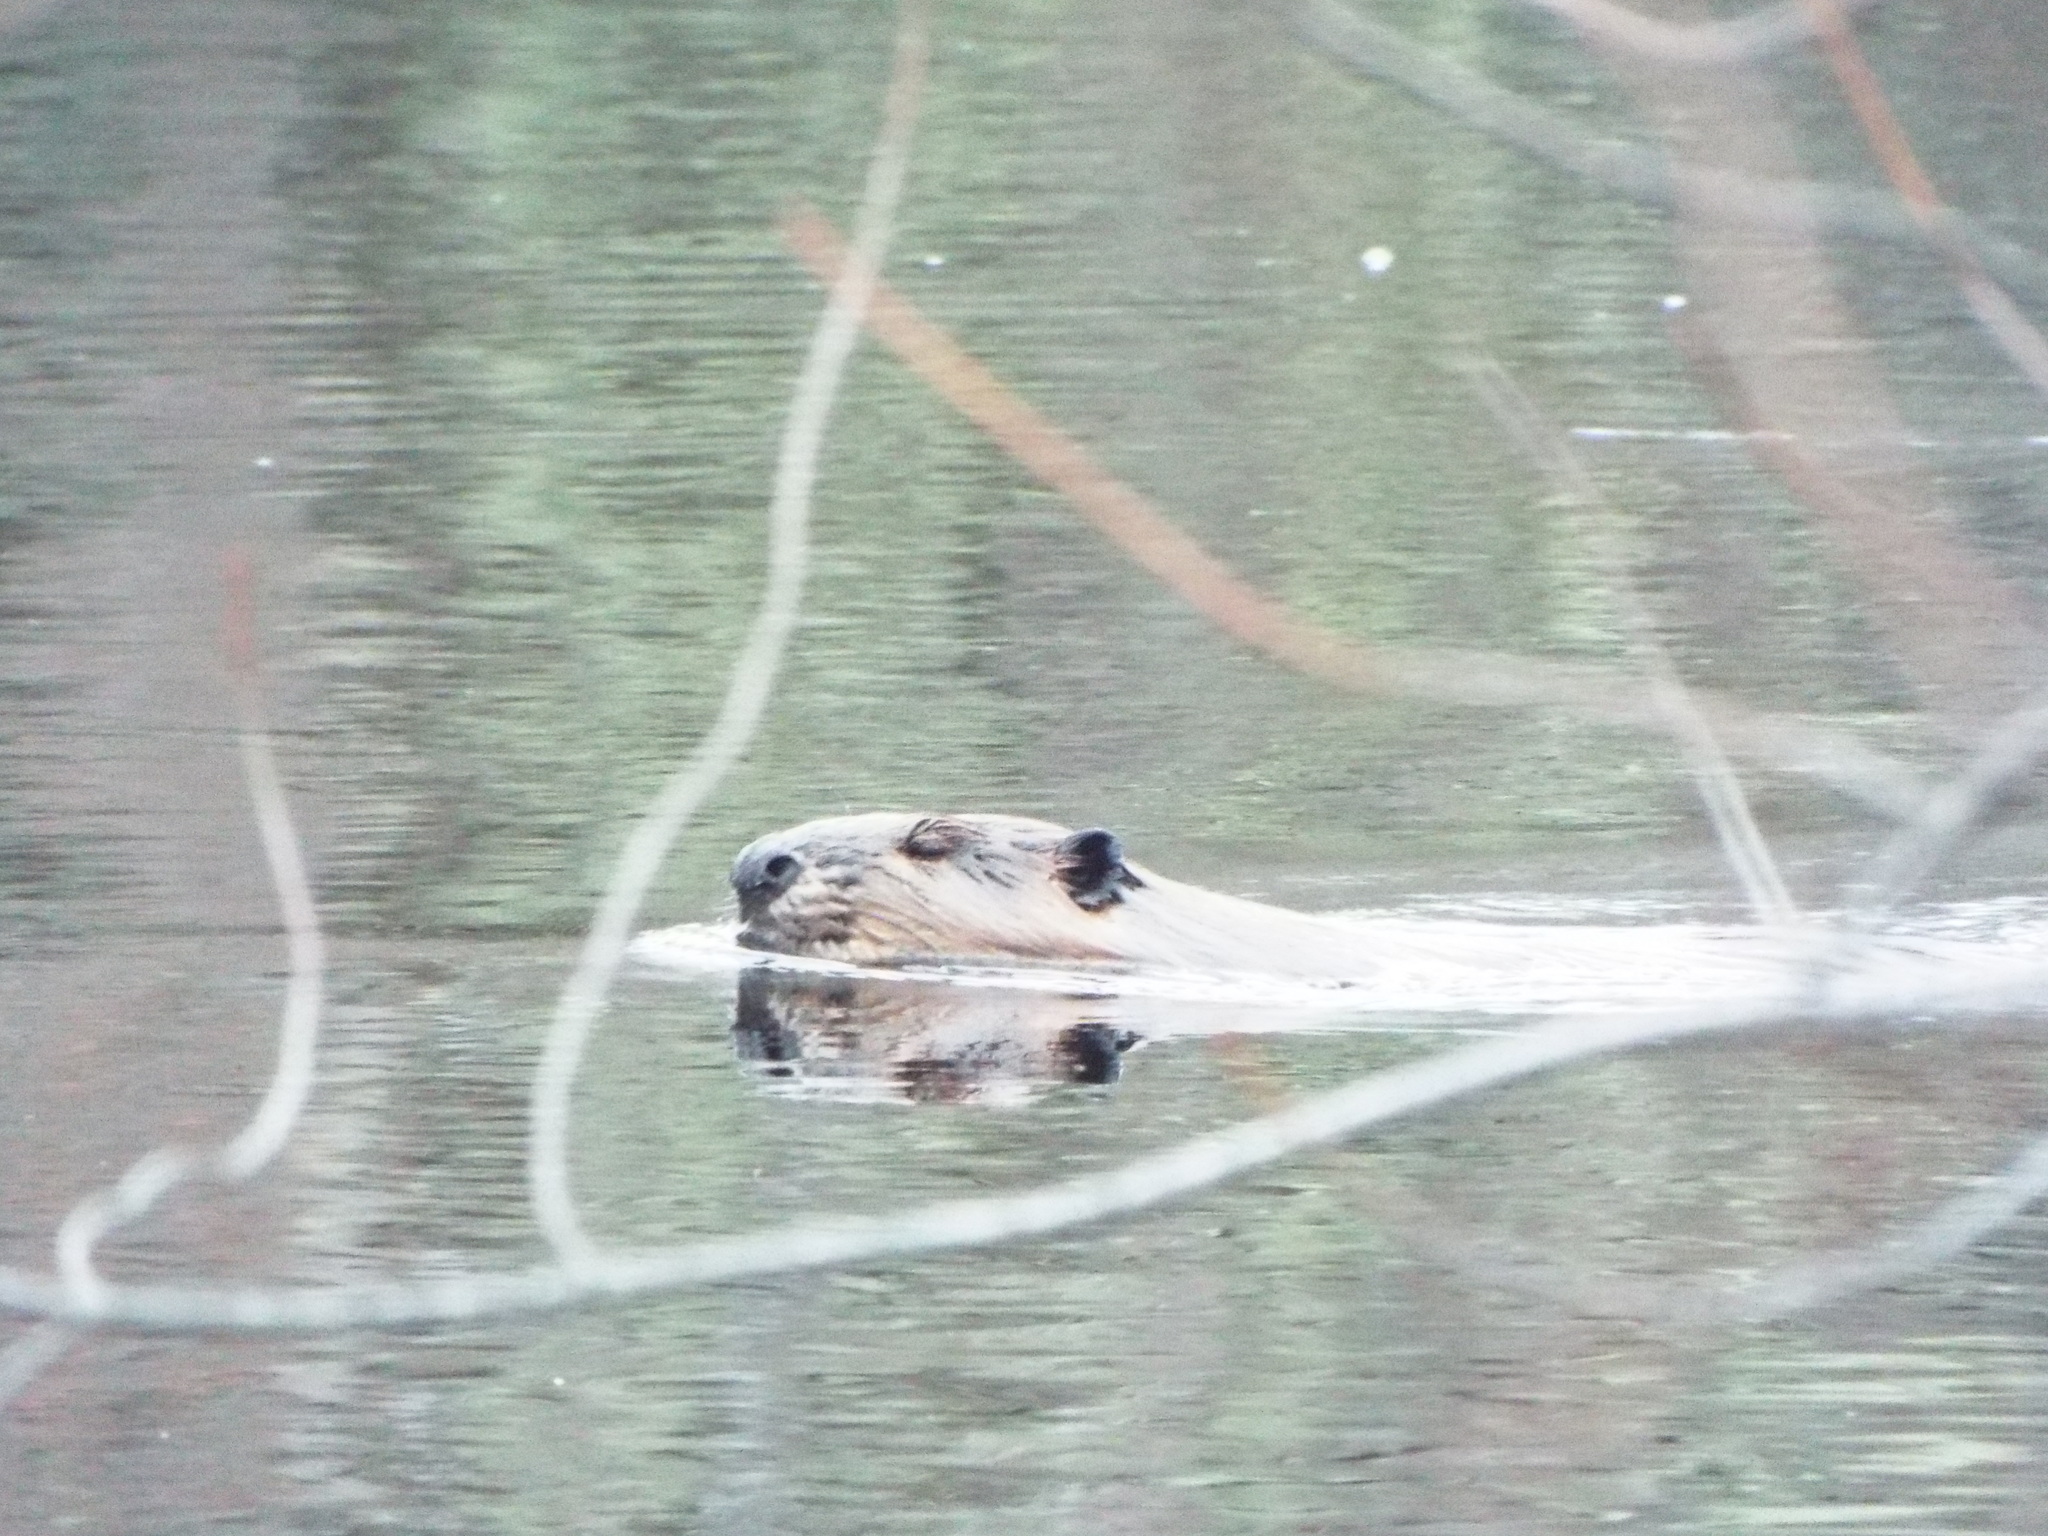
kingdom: Animalia
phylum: Chordata
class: Mammalia
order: Rodentia
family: Castoridae
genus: Castor
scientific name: Castor canadensis
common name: American beaver
